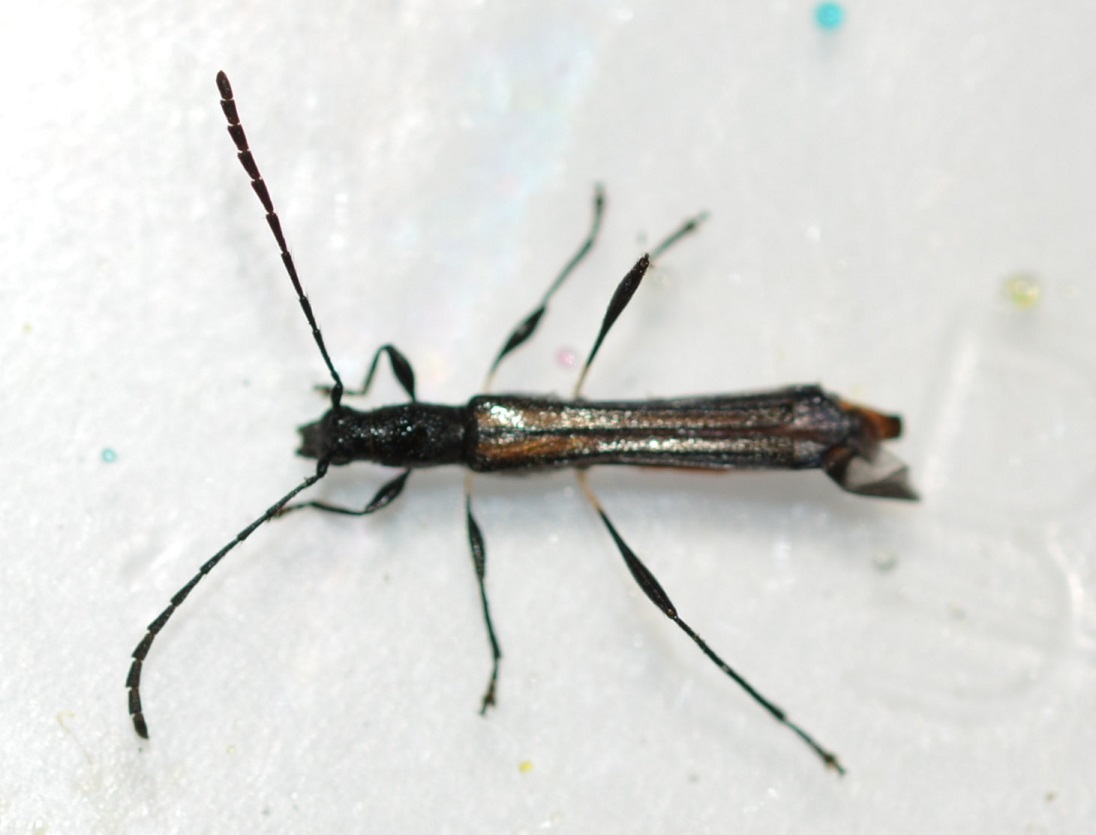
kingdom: Animalia
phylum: Arthropoda
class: Insecta
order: Coleoptera
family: Cerambycidae
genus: Eclipta
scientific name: Eclipta championella
